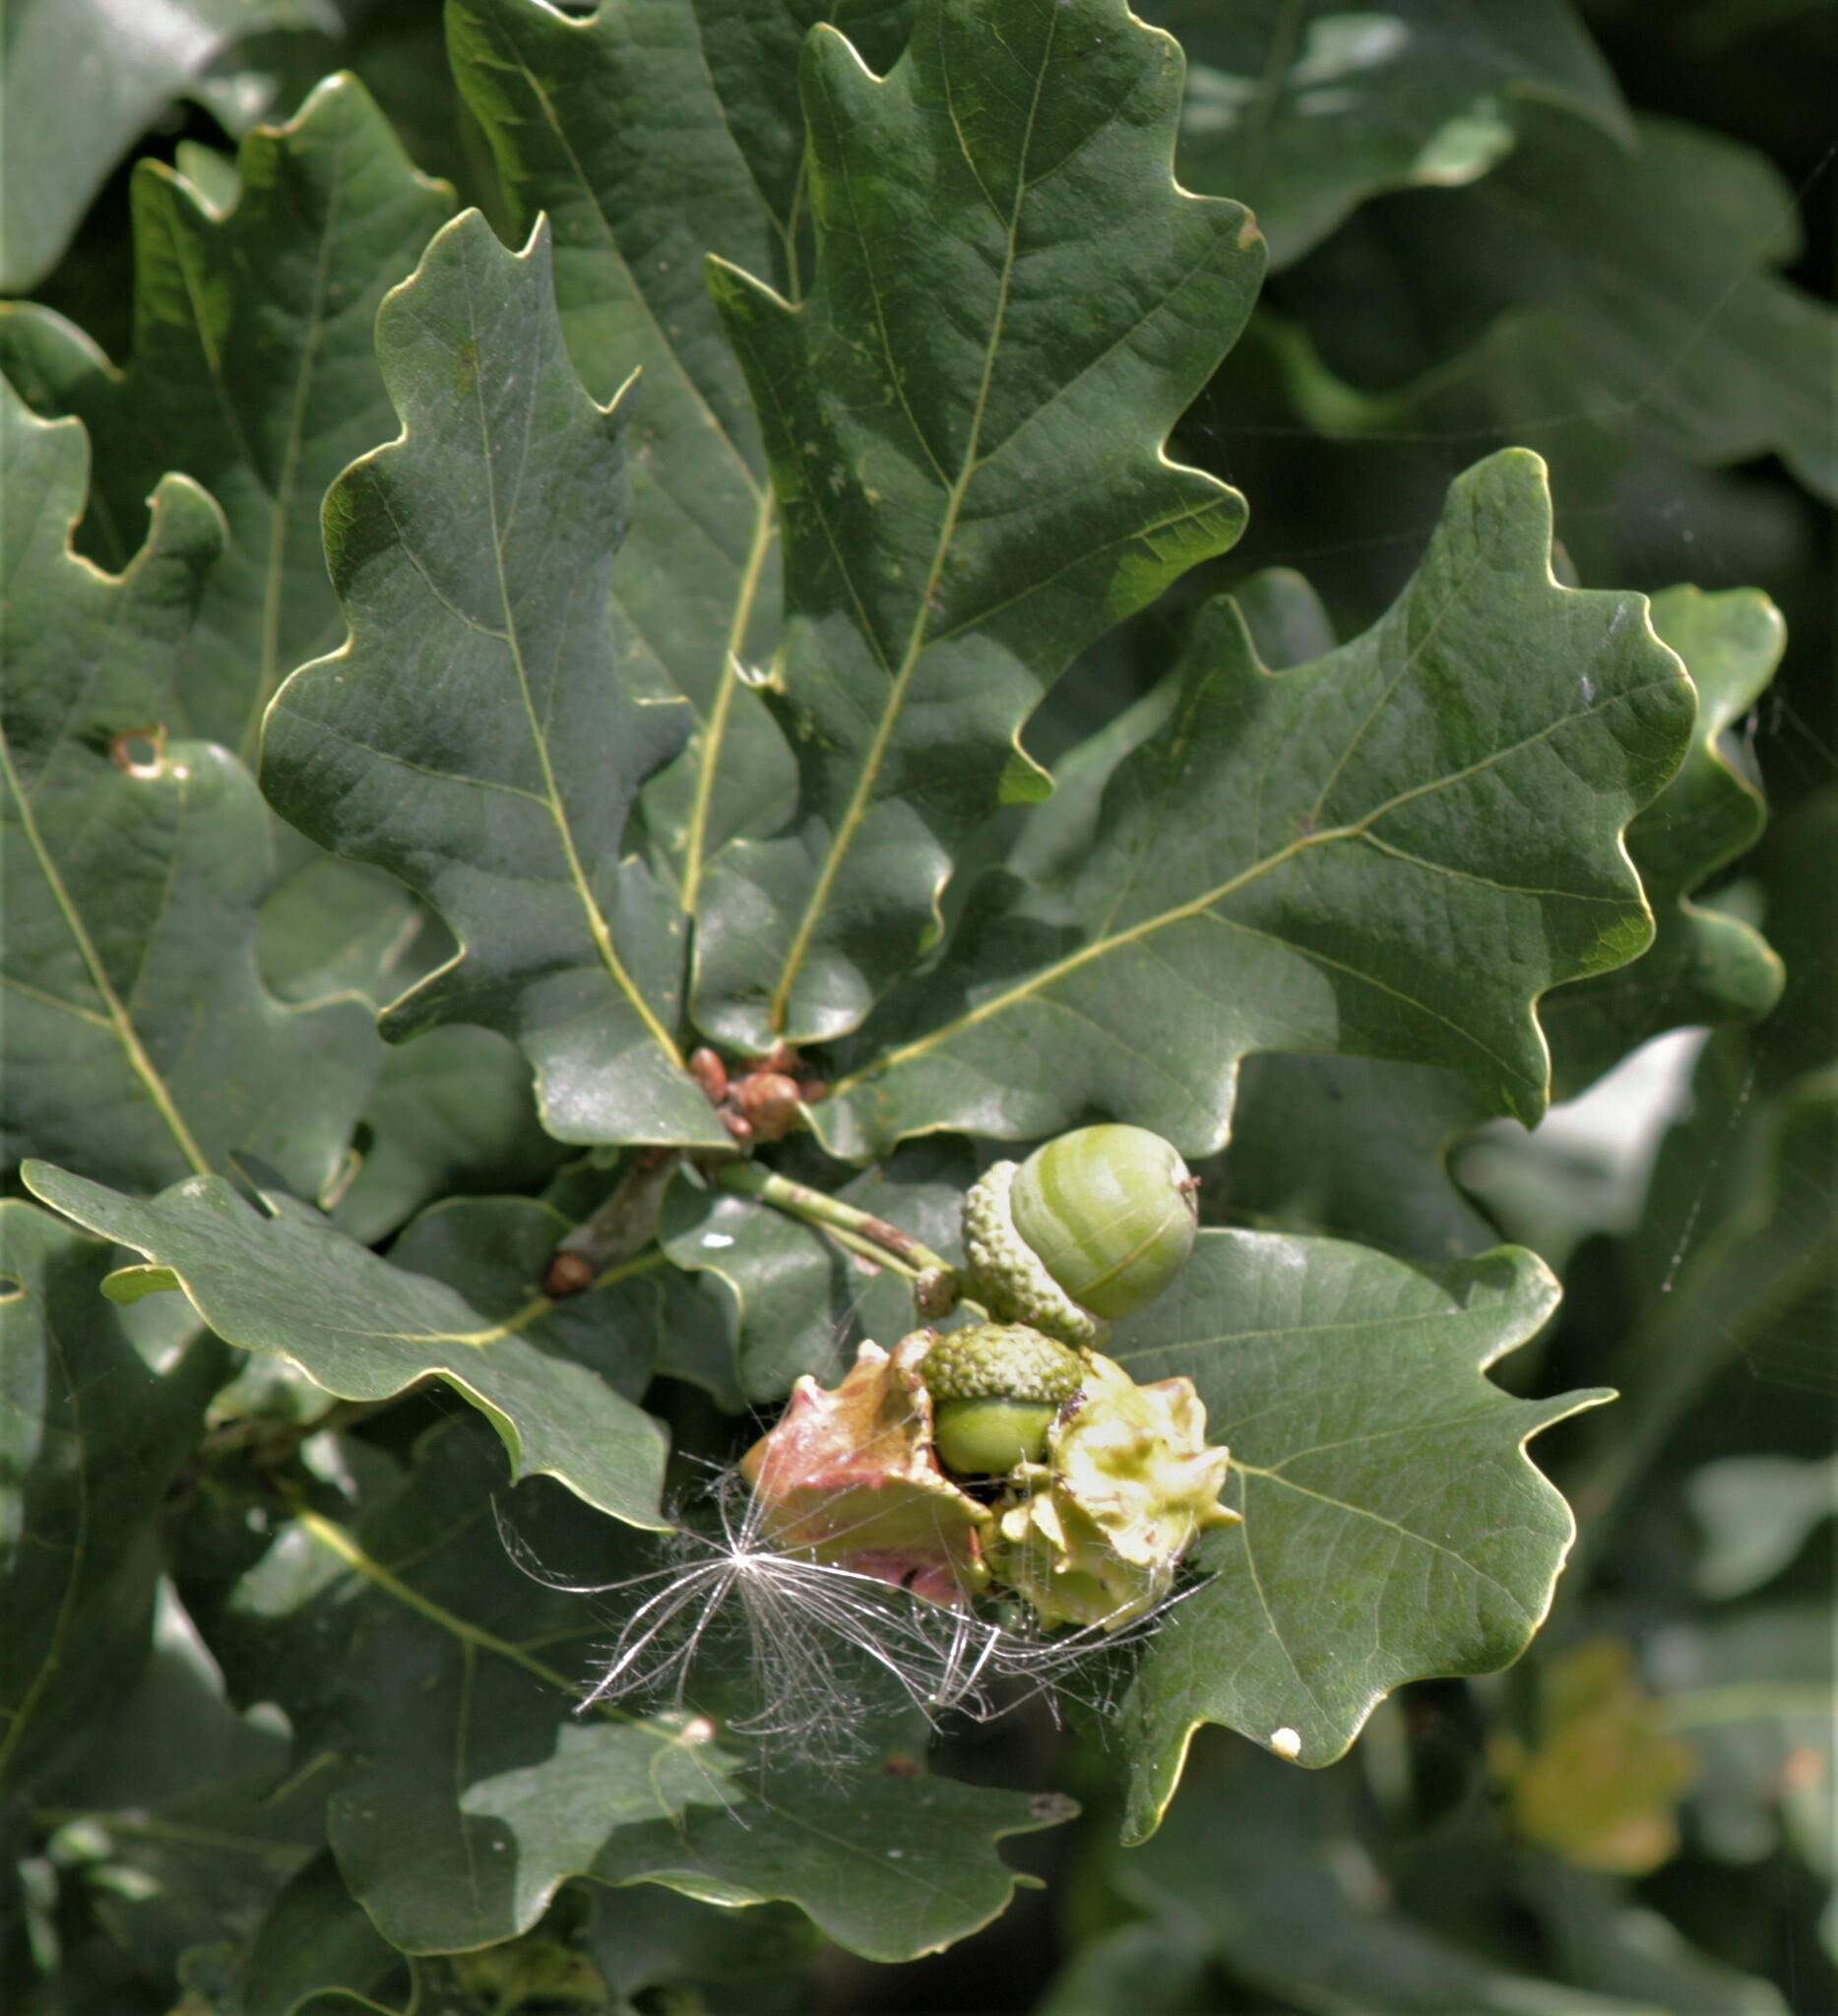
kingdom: Animalia
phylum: Arthropoda
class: Insecta
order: Hymenoptera
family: Cynipidae
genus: Andricus
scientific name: Andricus quercuscalicis
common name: Knopper gall
